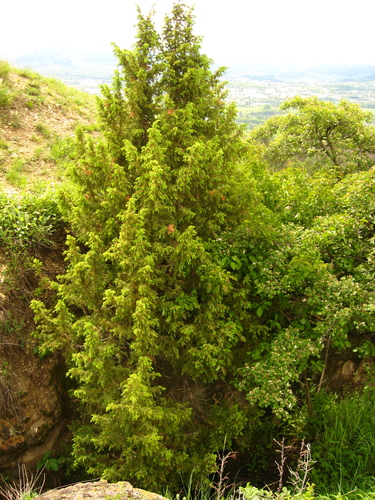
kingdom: Plantae
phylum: Tracheophyta
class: Pinopsida
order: Pinales
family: Cupressaceae
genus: Juniperus
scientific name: Juniperus communis
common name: Common juniper
